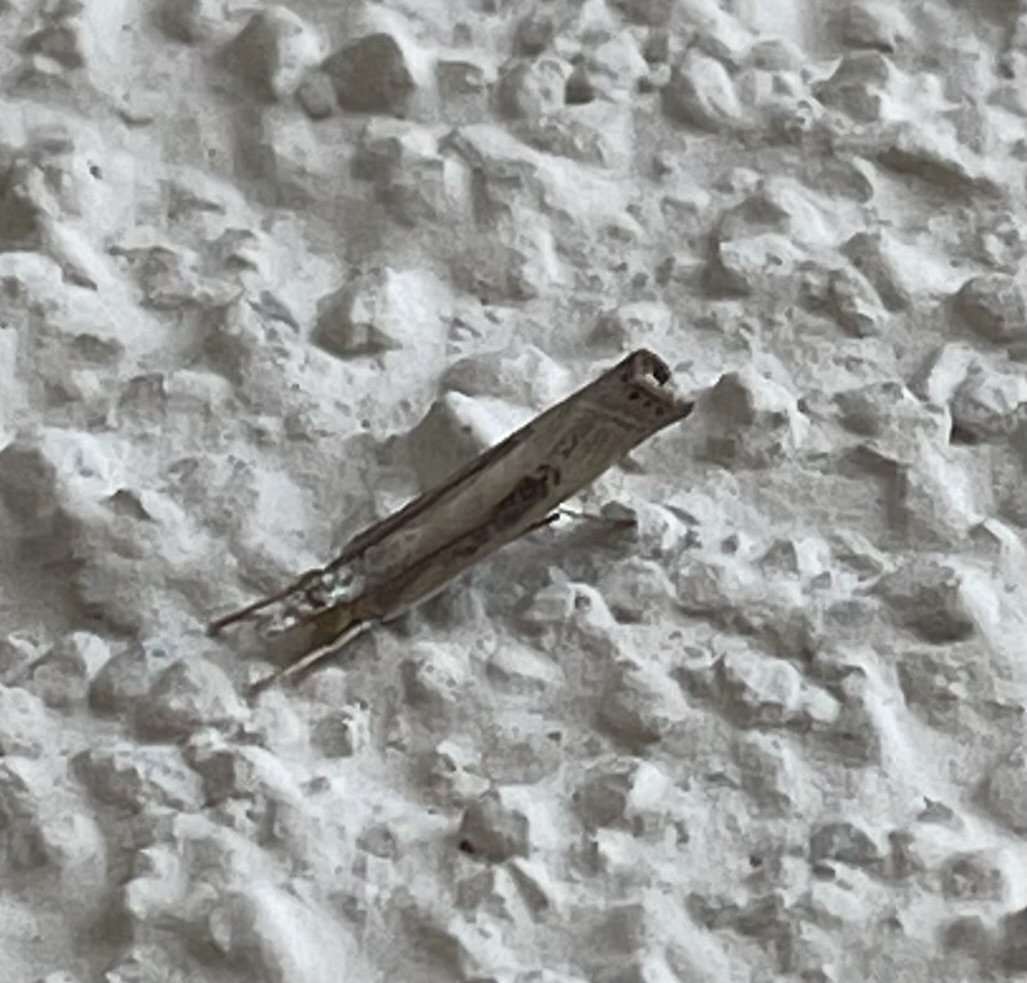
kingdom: Animalia
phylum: Arthropoda
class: Insecta
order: Lepidoptera
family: Crambidae
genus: Parapediasia
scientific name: Parapediasia teterellus
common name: Bluegrass webworm moth
